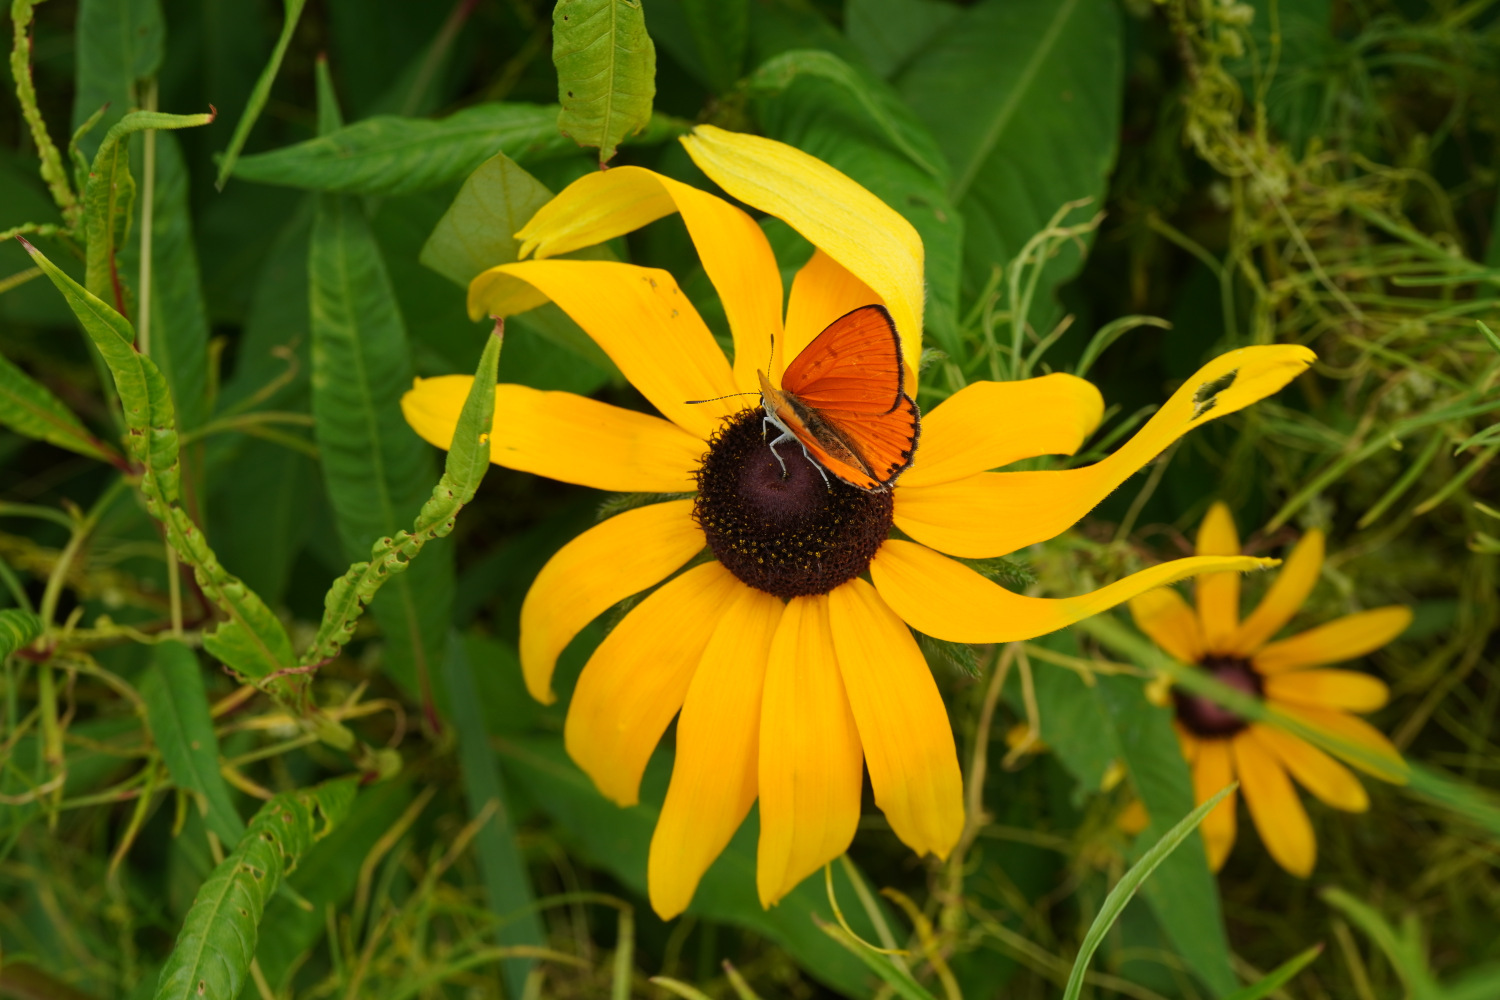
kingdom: Animalia
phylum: Arthropoda
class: Insecta
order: Lepidoptera
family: Lycaenidae
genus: Lycaena
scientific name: Lycaena dispar
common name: Large copper
